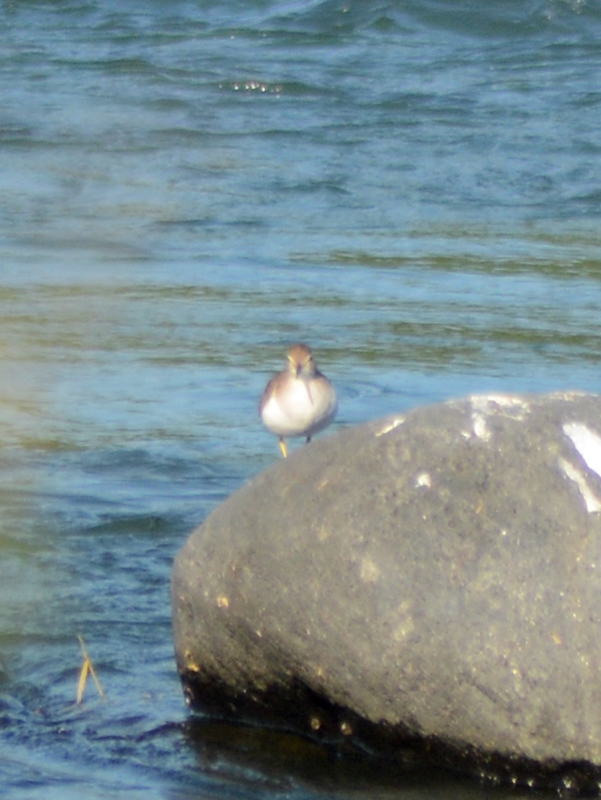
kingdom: Animalia
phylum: Chordata
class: Aves
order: Charadriiformes
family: Scolopacidae
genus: Actitis
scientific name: Actitis macularius
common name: Spotted sandpiper
